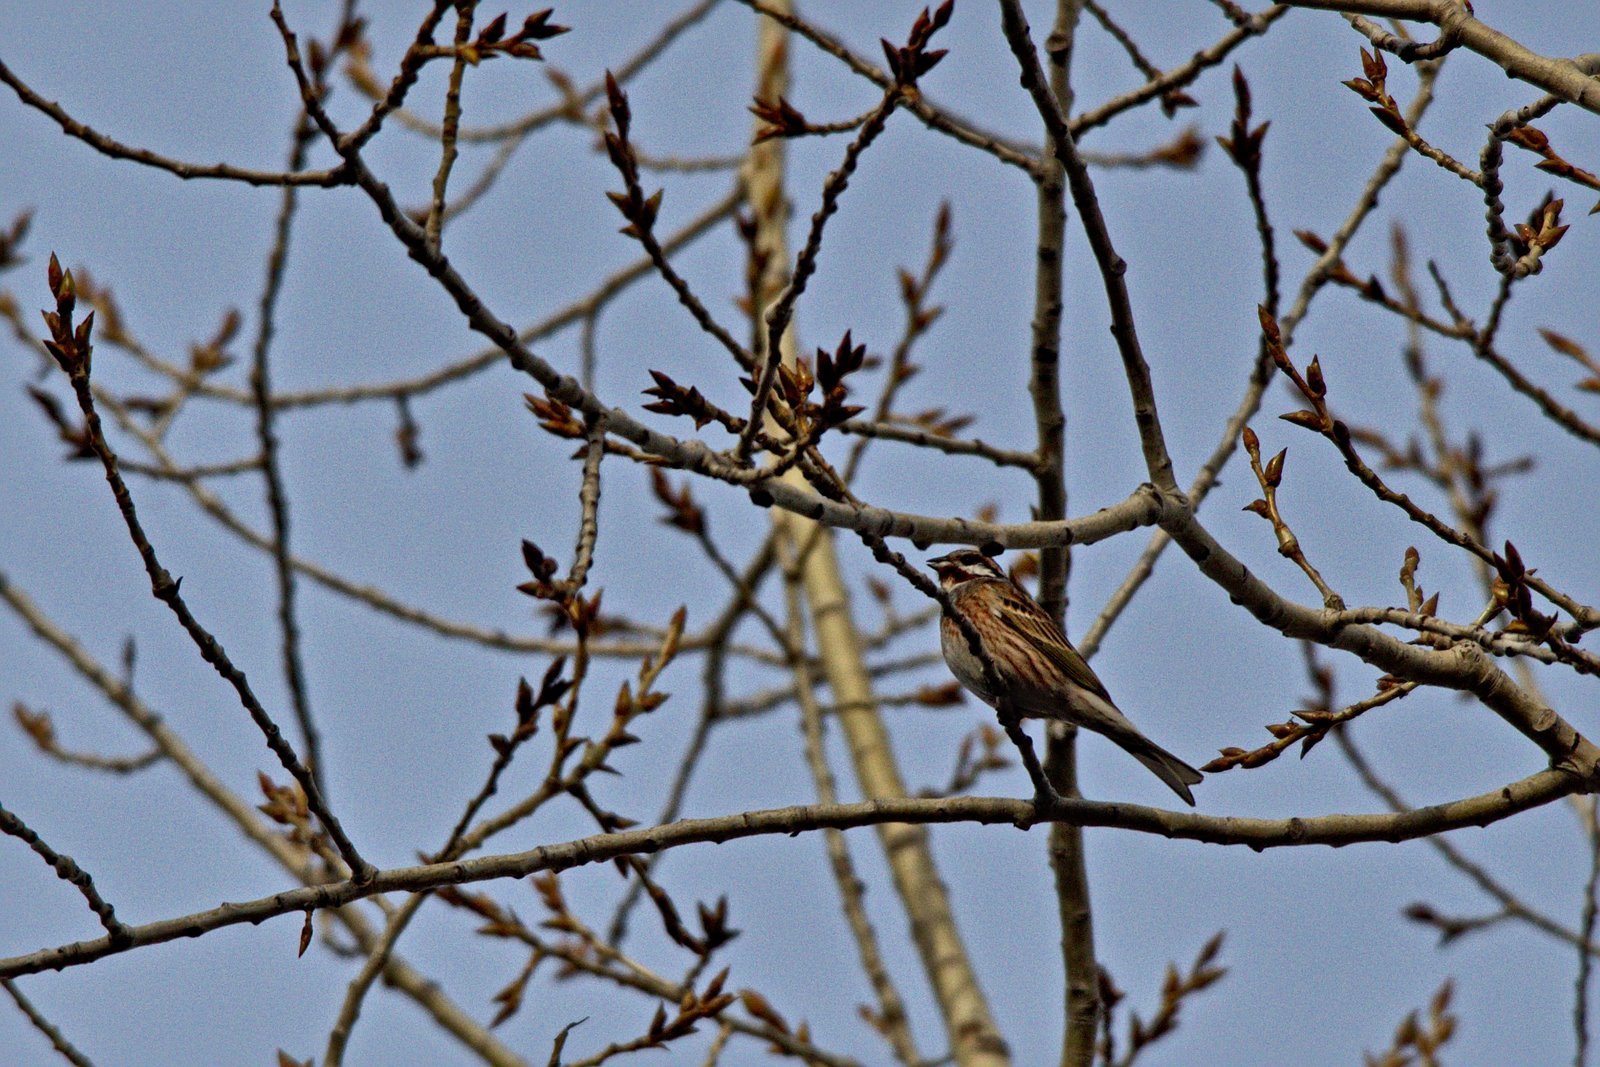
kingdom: Animalia
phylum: Chordata
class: Aves
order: Passeriformes
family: Emberizidae
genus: Emberiza
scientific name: Emberiza
